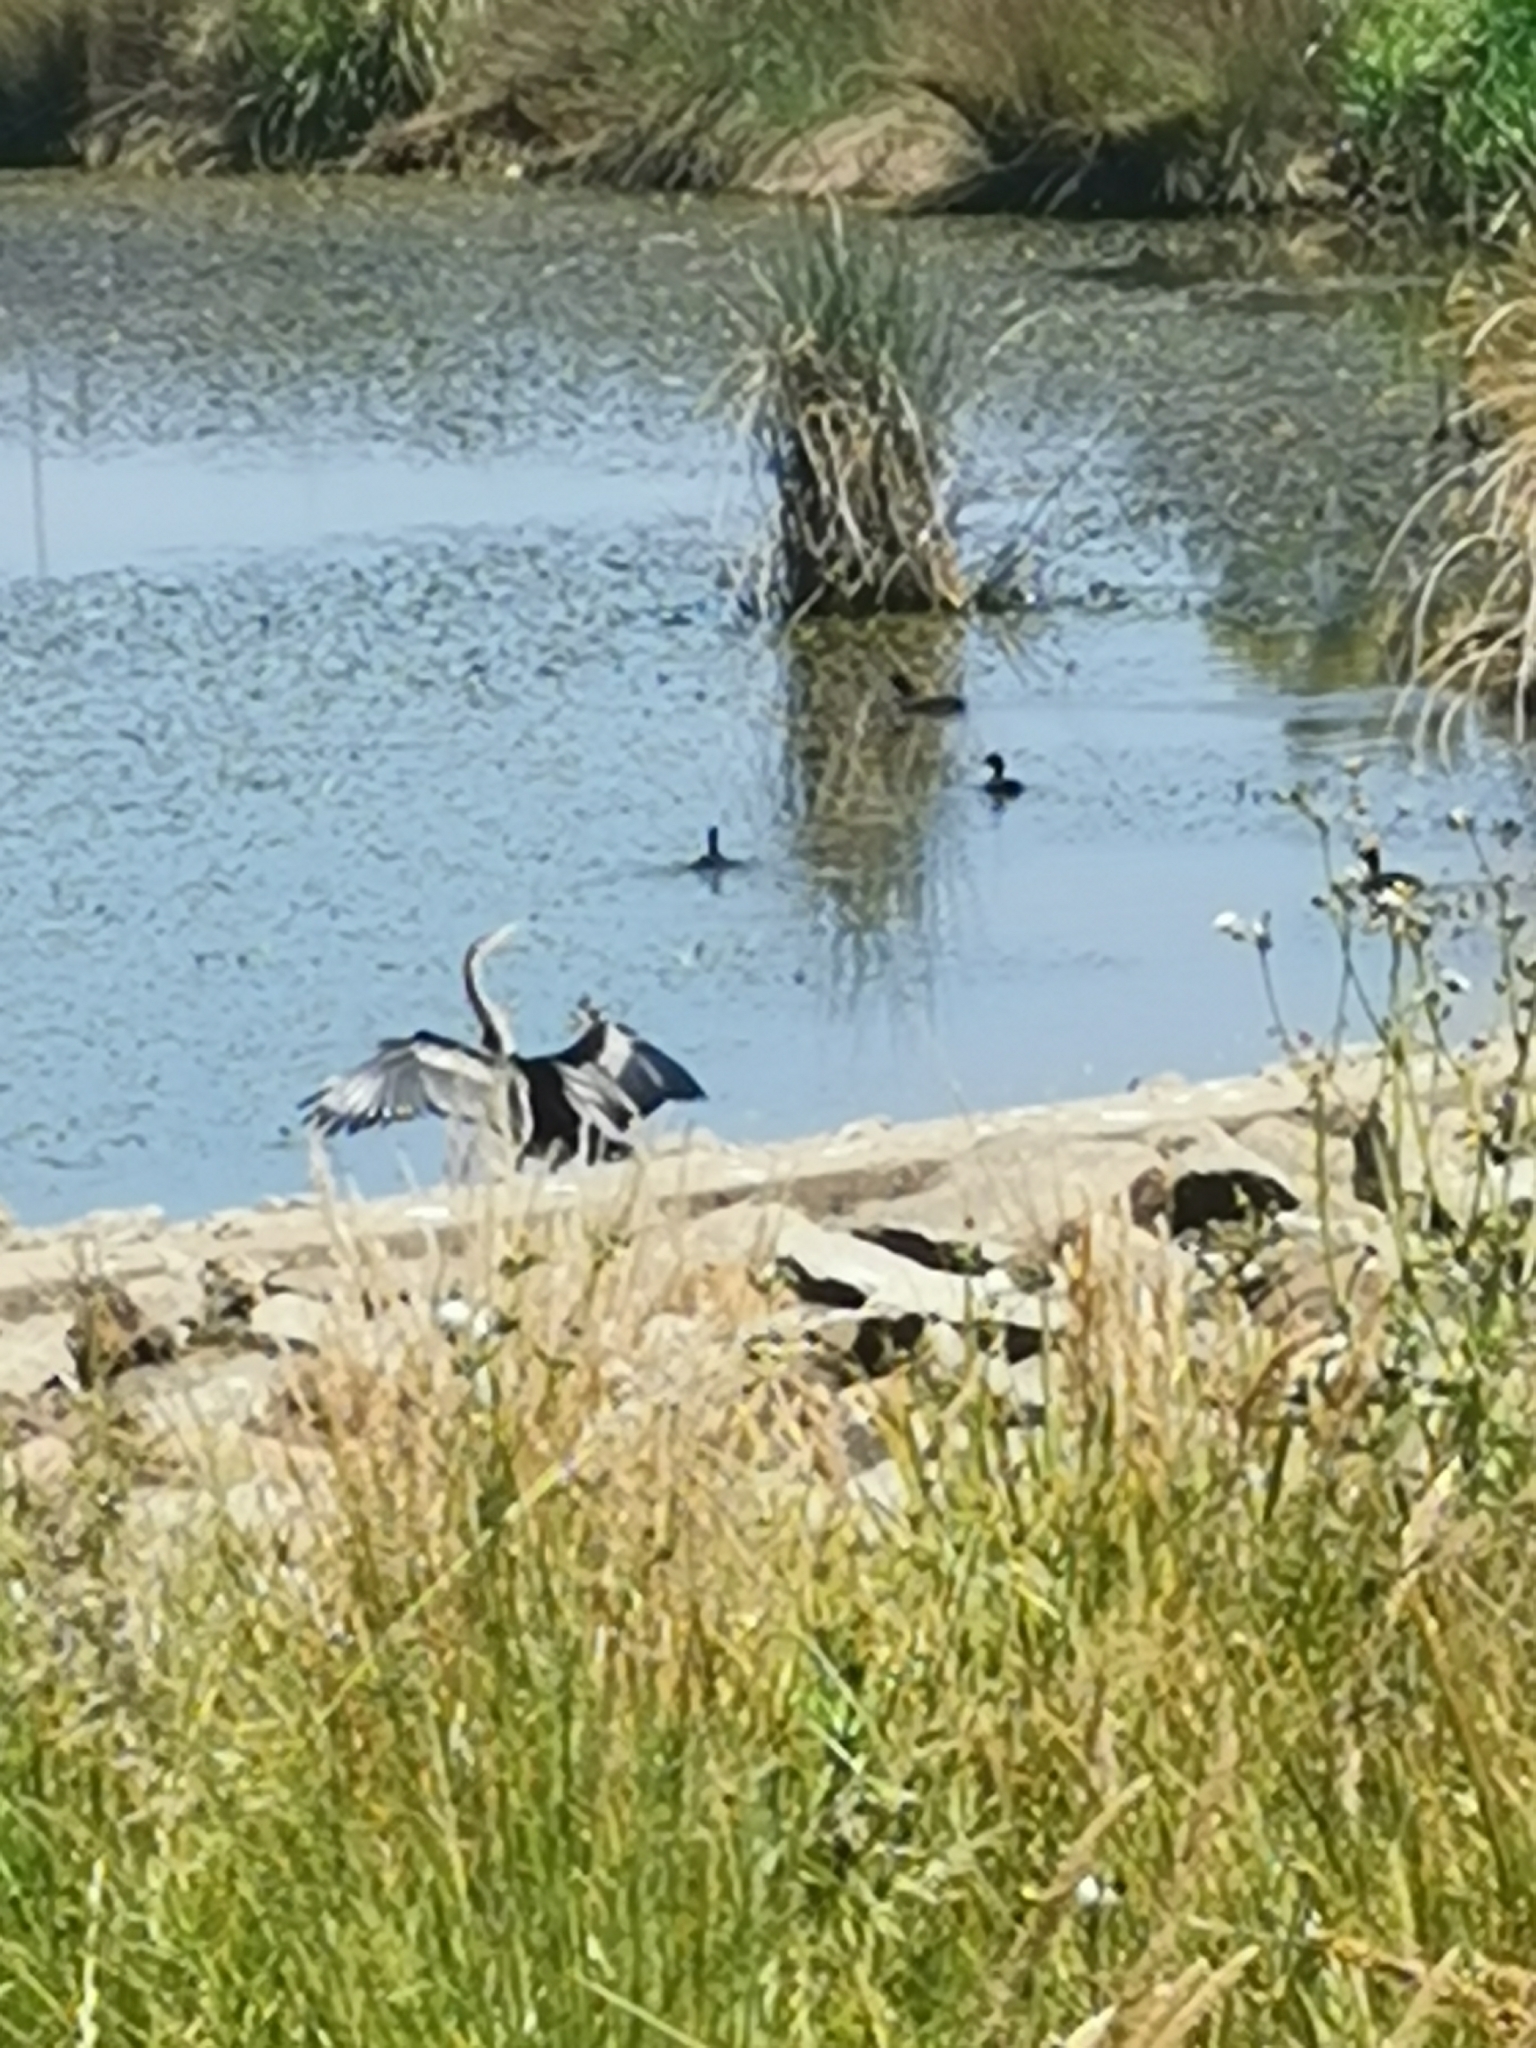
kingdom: Animalia
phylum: Chordata
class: Aves
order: Suliformes
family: Anhingidae
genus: Anhinga
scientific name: Anhinga novaehollandiae
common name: Australasian darter
